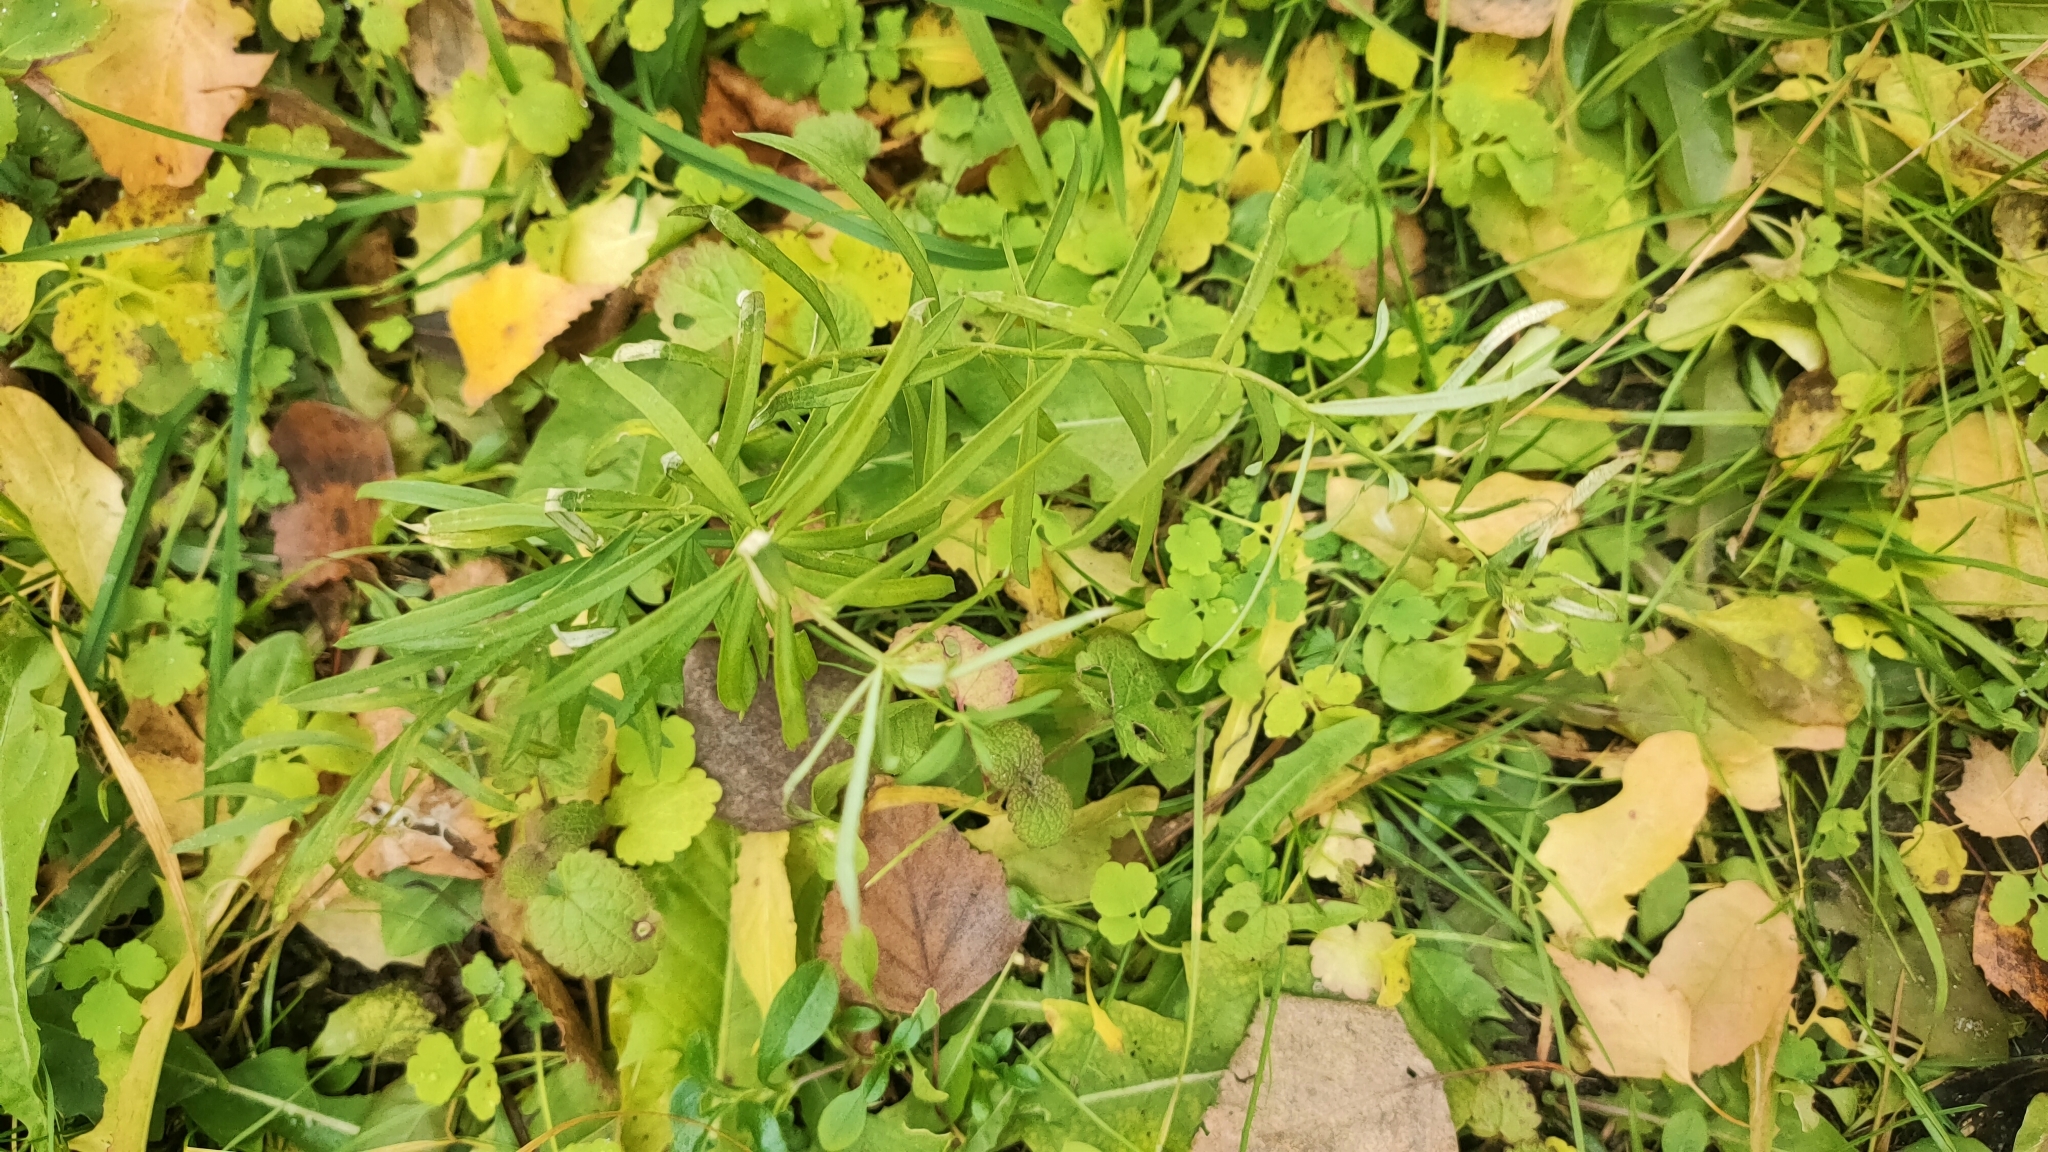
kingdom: Plantae
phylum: Tracheophyta
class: Magnoliopsida
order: Lamiales
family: Plantaginaceae
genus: Linaria
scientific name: Linaria vulgaris
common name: Butter and eggs
